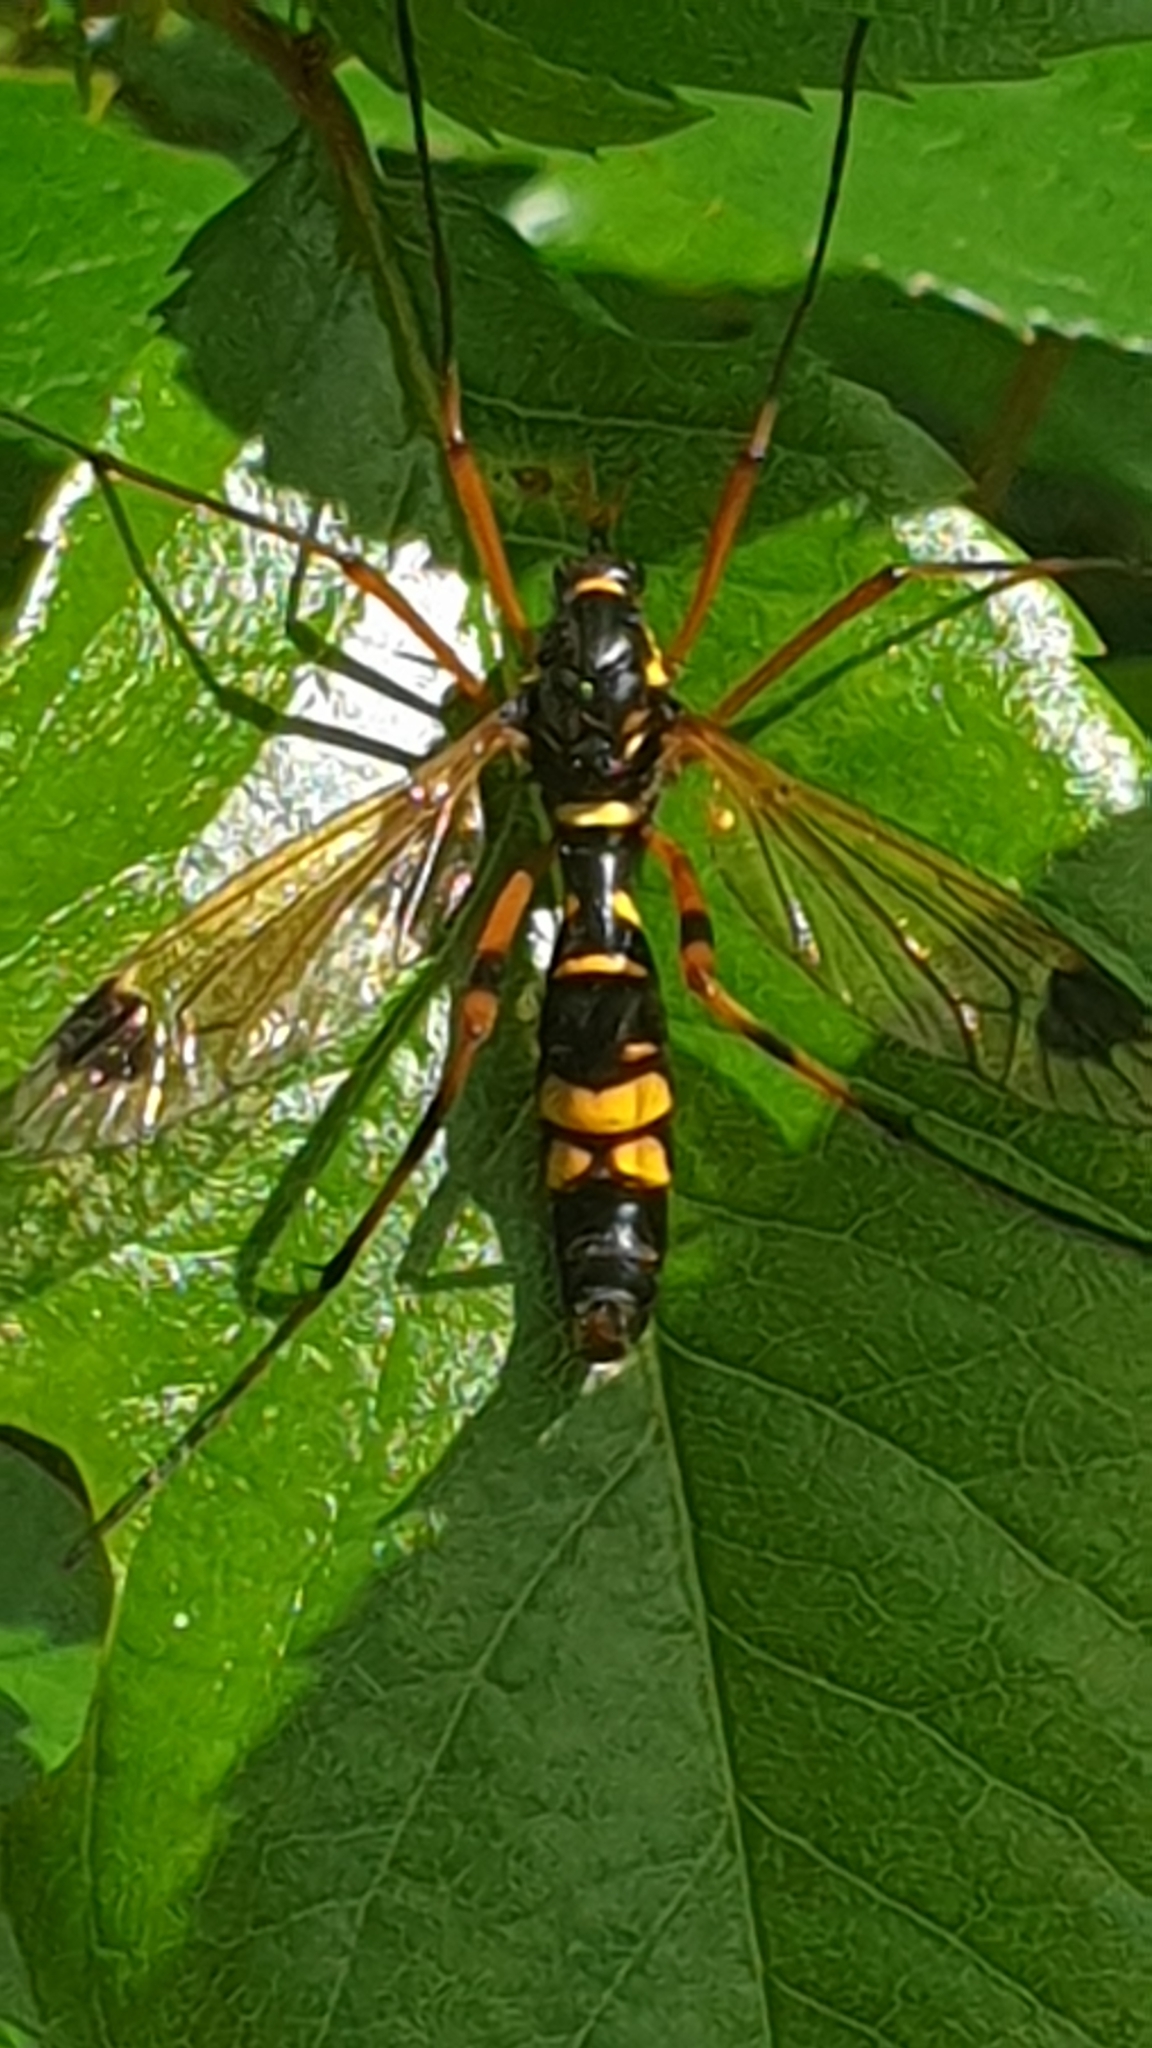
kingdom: Animalia
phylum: Arthropoda
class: Insecta
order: Diptera
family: Tipulidae
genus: Ctenophora
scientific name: Ctenophora festiva
